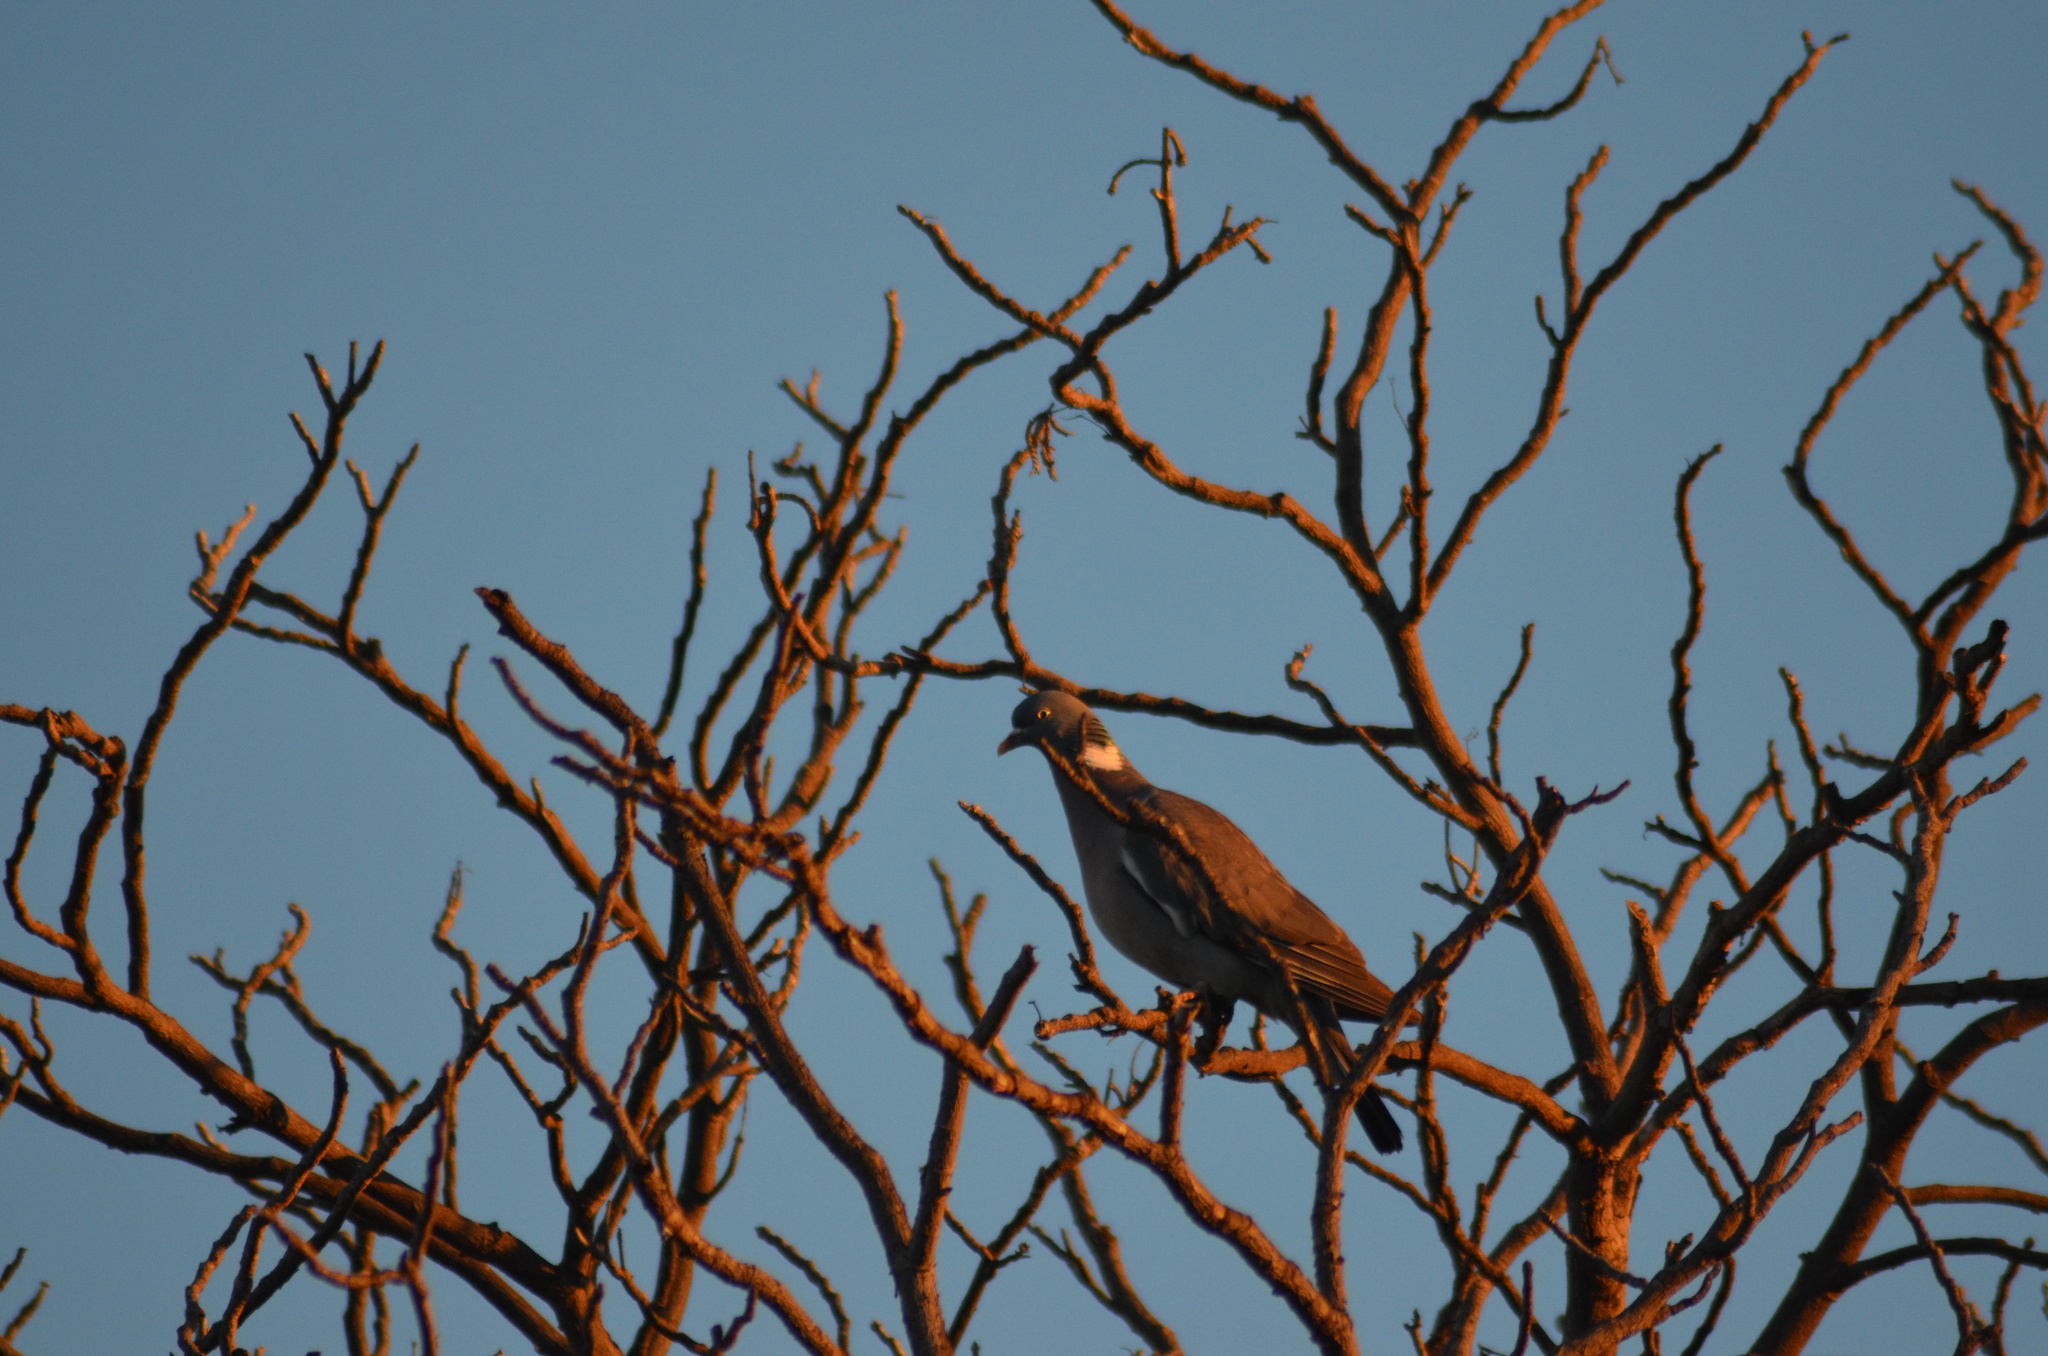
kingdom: Animalia
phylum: Chordata
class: Aves
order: Columbiformes
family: Columbidae
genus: Columba
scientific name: Columba palumbus
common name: Common wood pigeon
